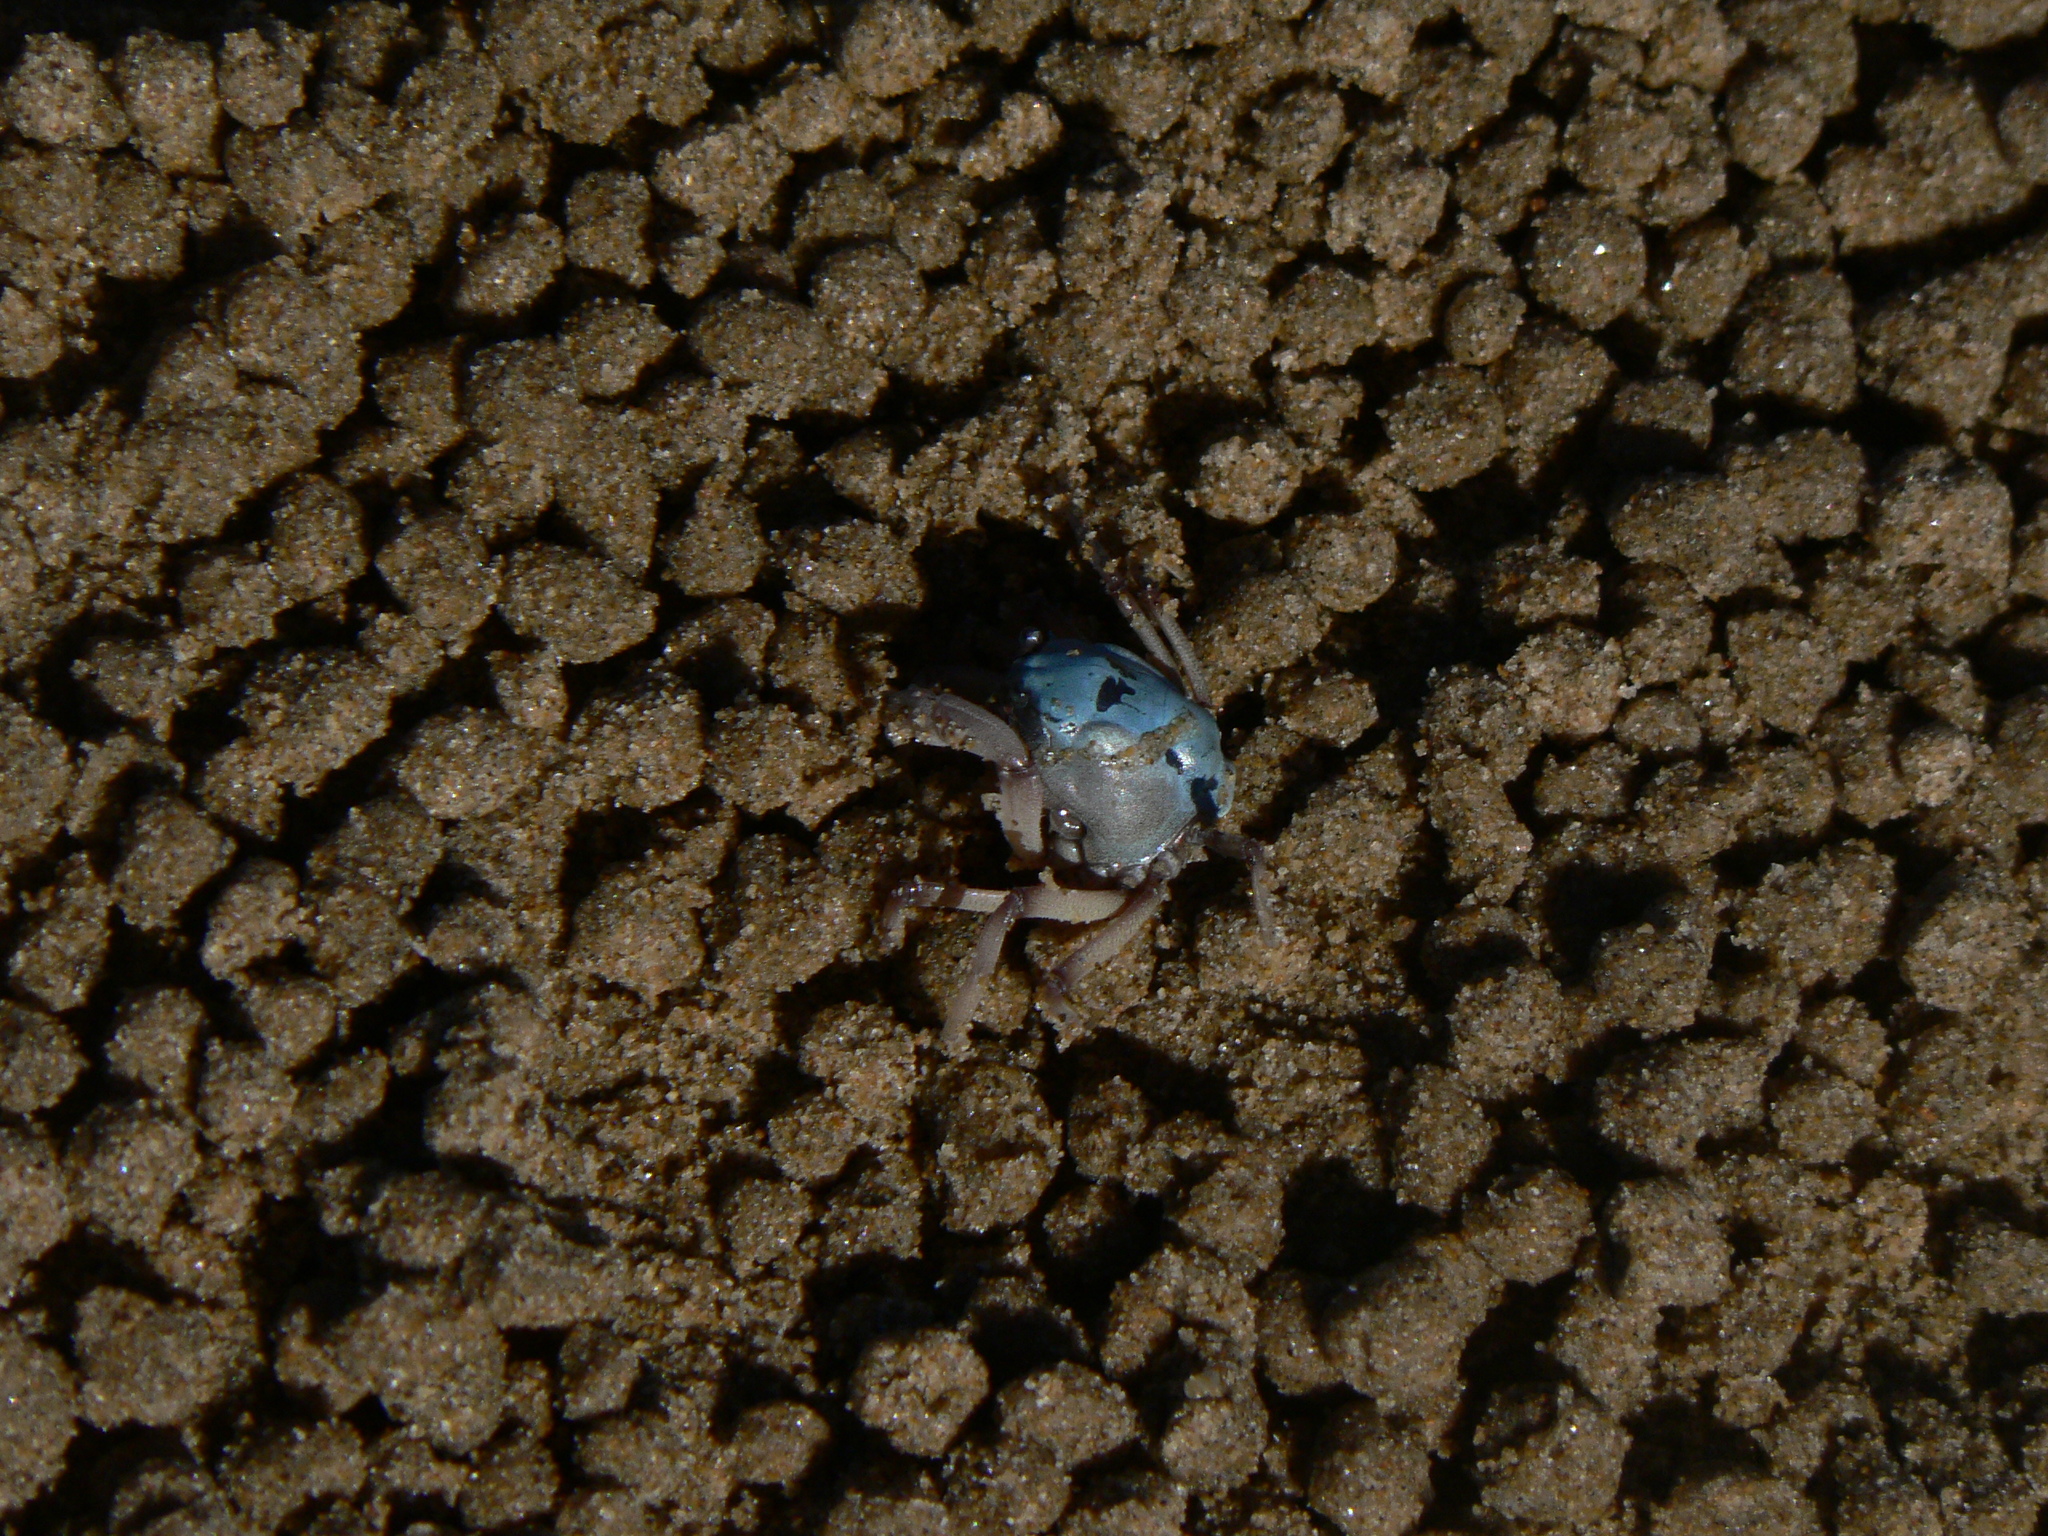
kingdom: Animalia
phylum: Arthropoda
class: Malacostraca
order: Decapoda
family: Mictyridae
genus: Mictyris
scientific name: Mictyris longicarpus
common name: Light-blue soldier crab
